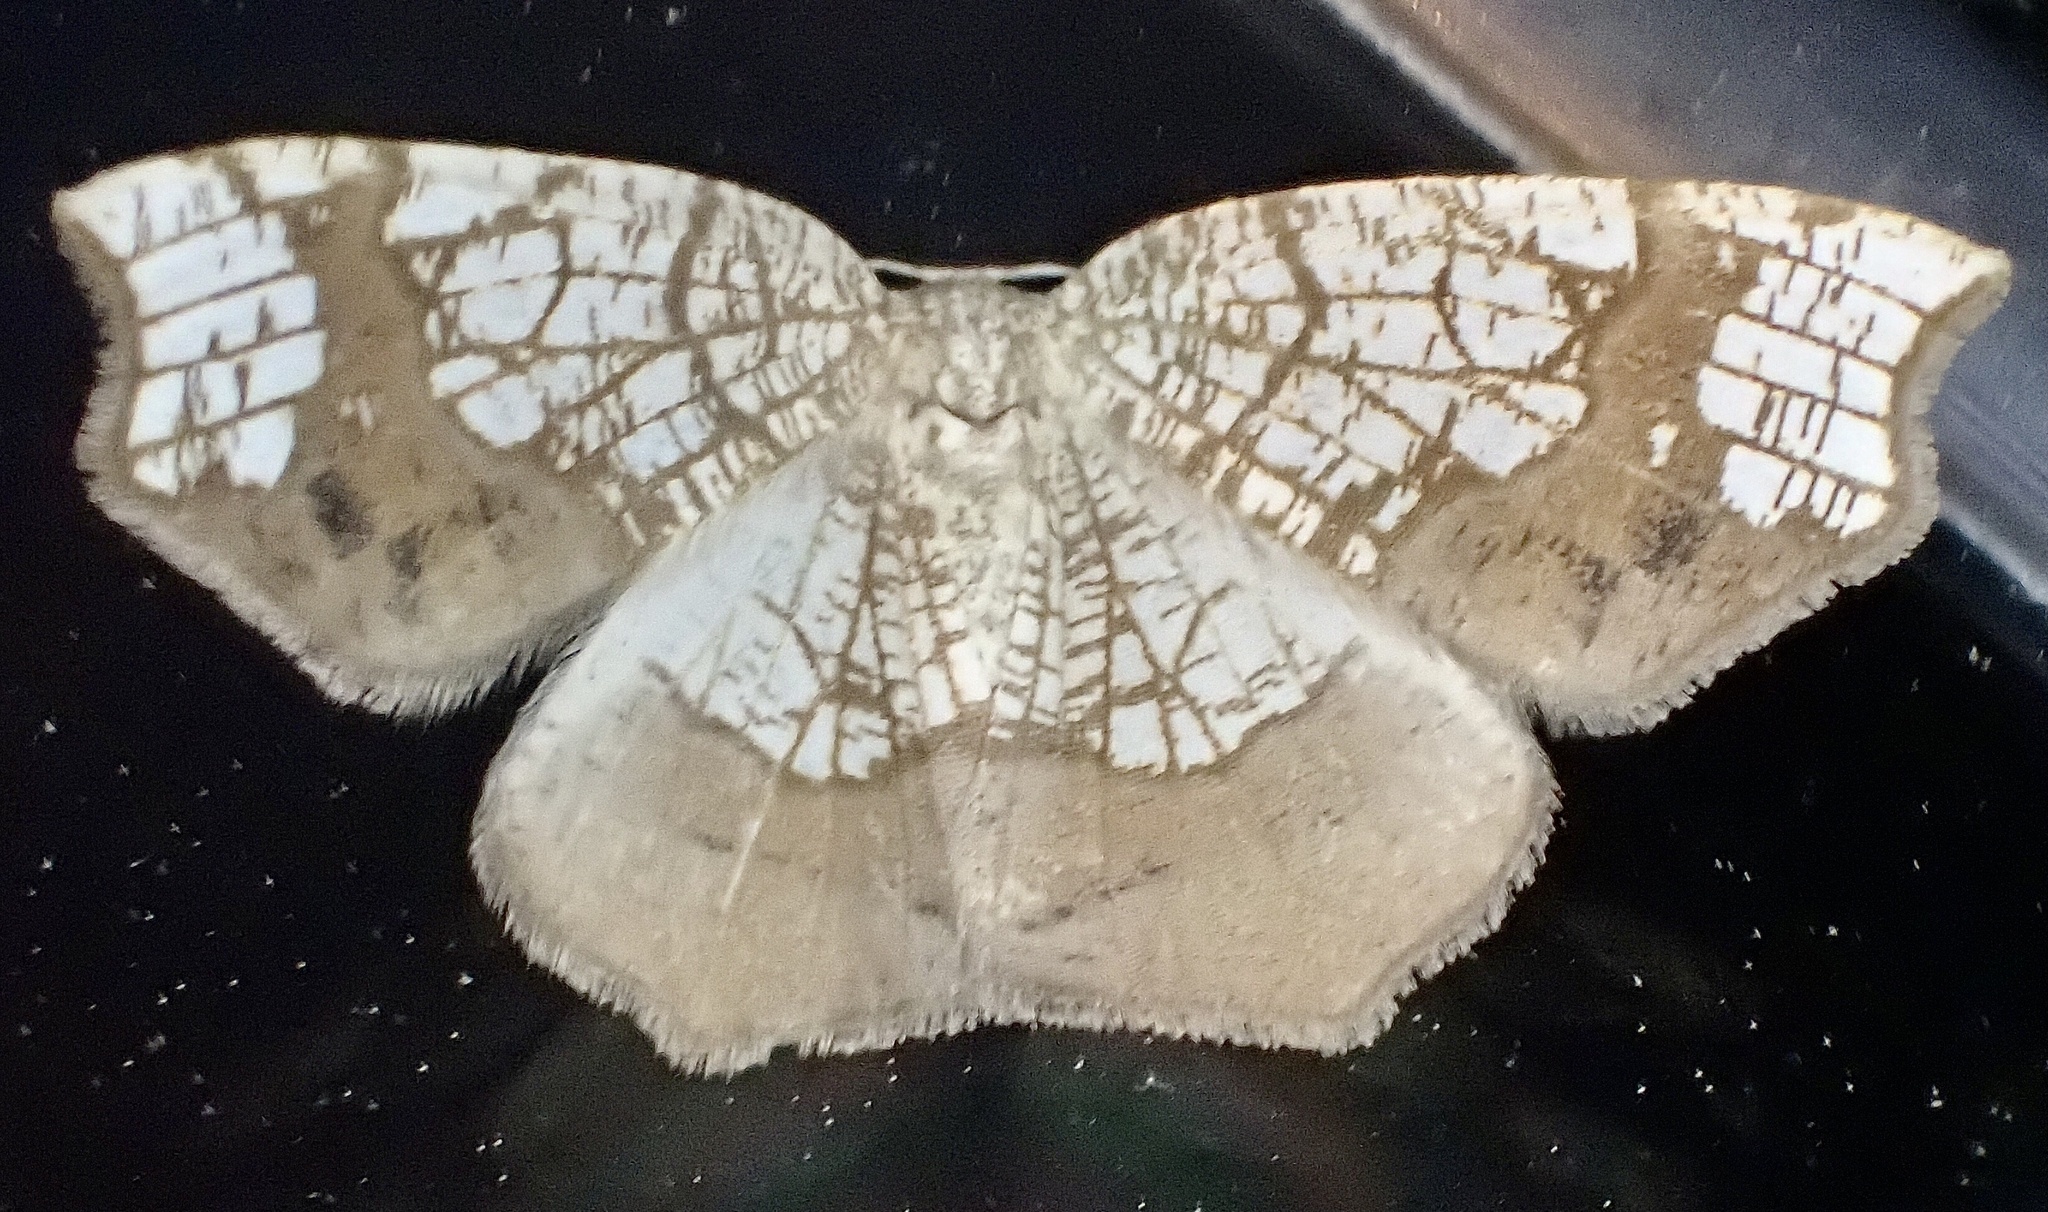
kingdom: Animalia
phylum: Arthropoda
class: Insecta
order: Lepidoptera
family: Geometridae
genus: Nematocampa
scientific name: Nematocampa resistaria
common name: Horned spanworm moth
